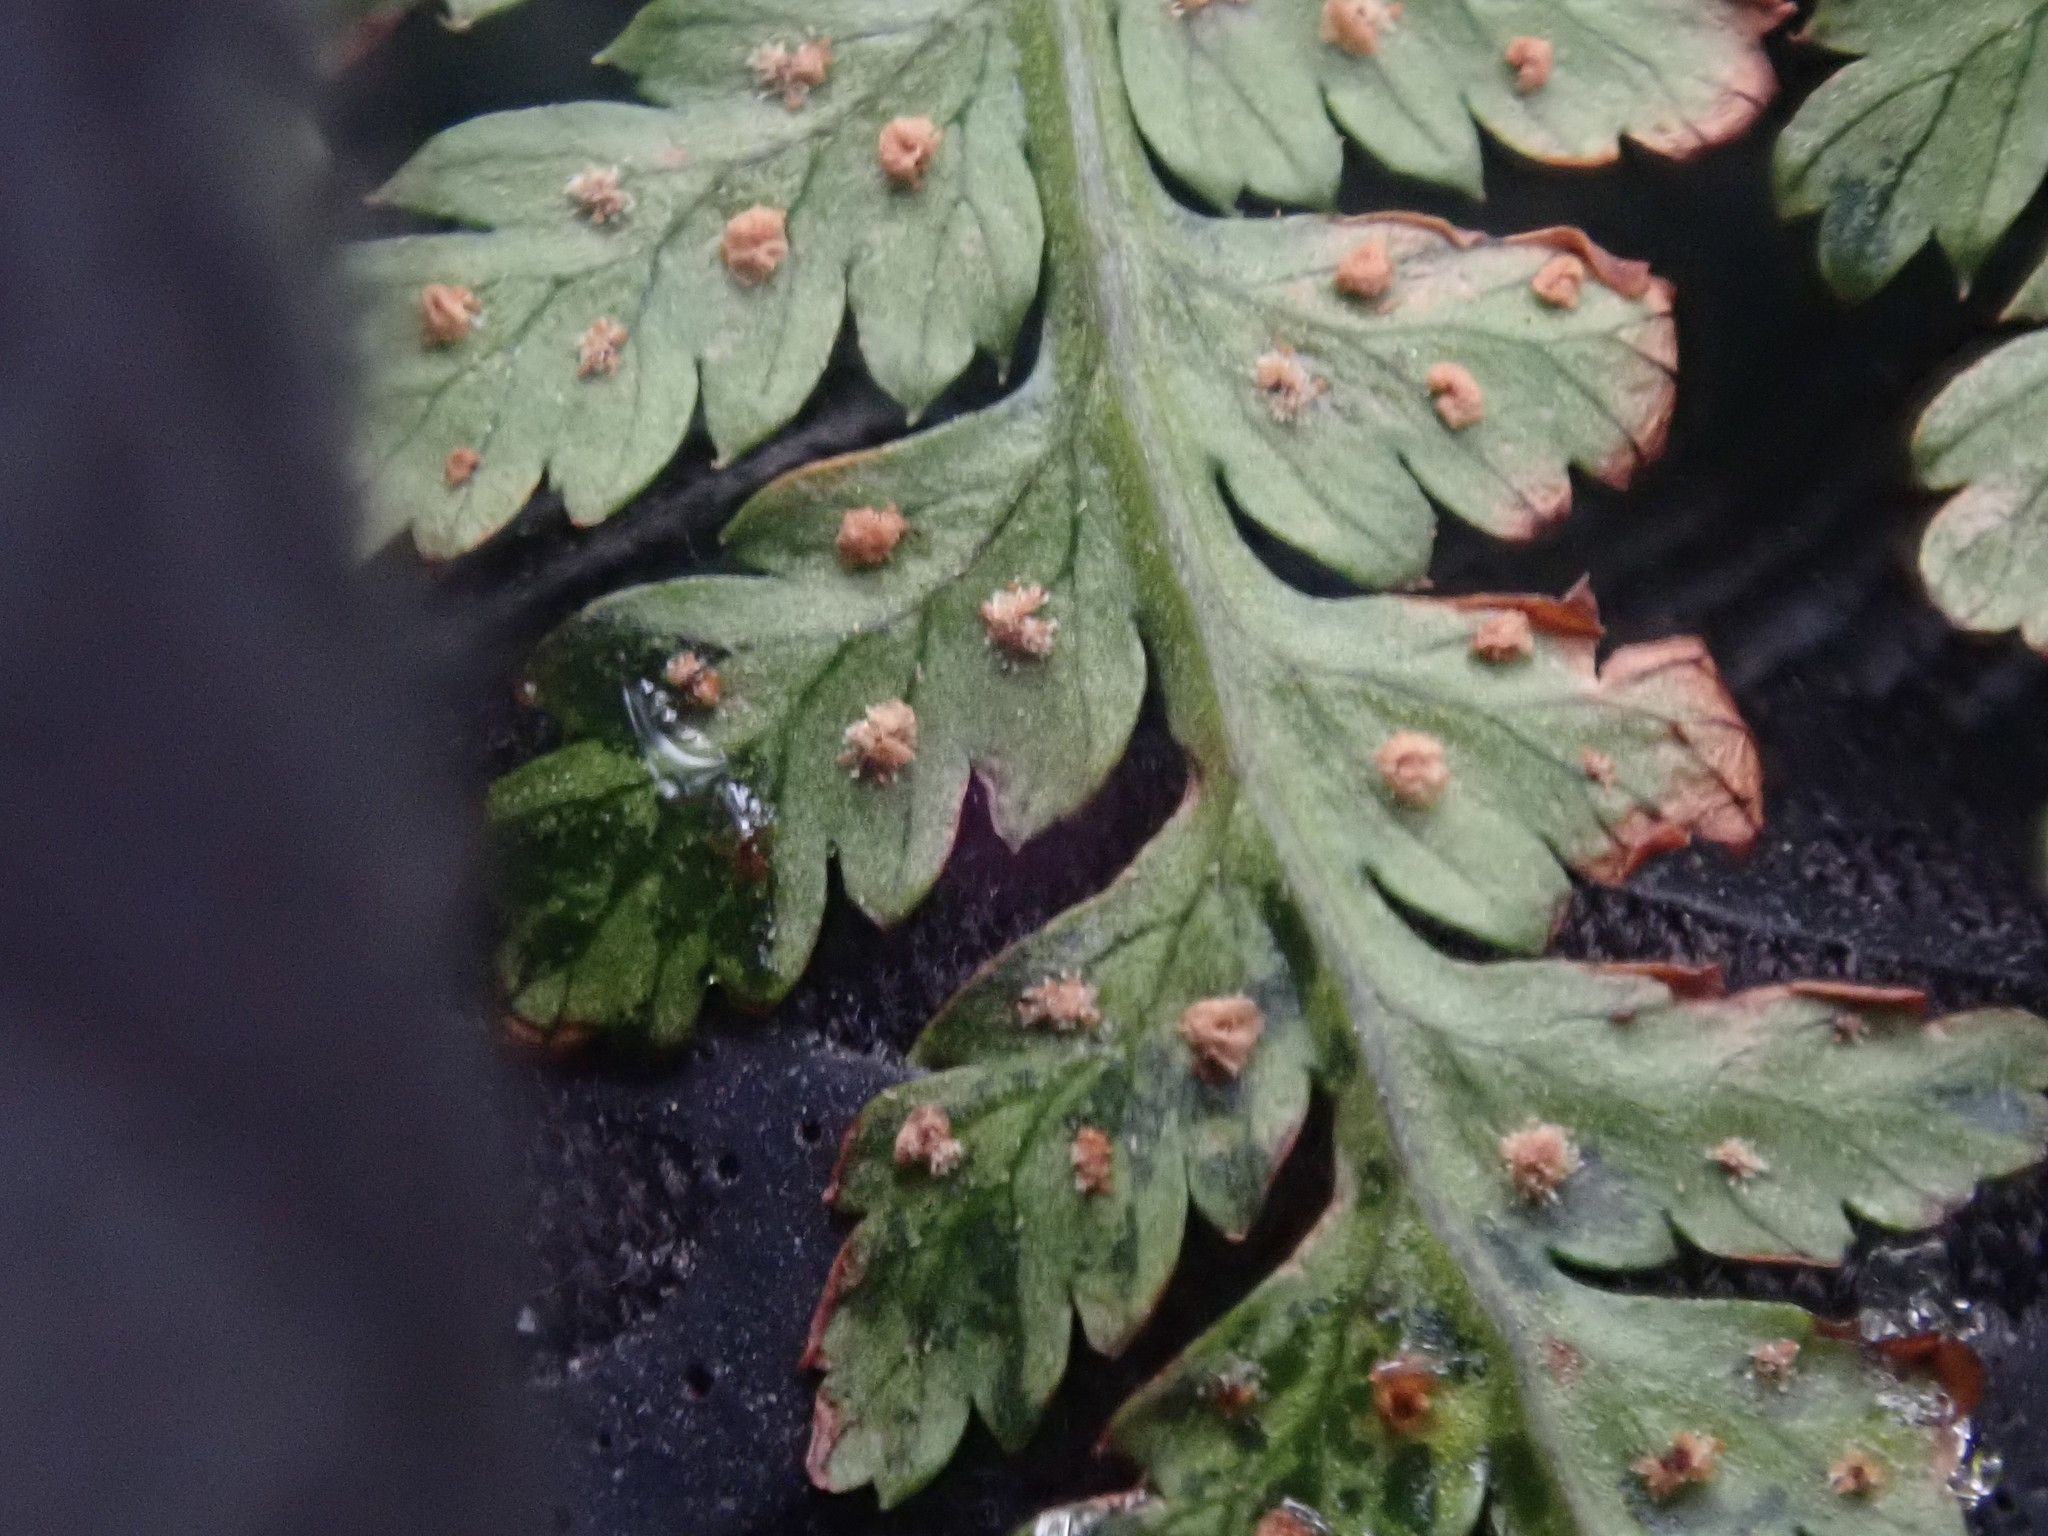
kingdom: Plantae
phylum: Tracheophyta
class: Polypodiopsida
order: Polypodiales
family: Dryopteridaceae
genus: Dryopteris
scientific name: Dryopteris intermedia
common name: Evergreen wood fern
